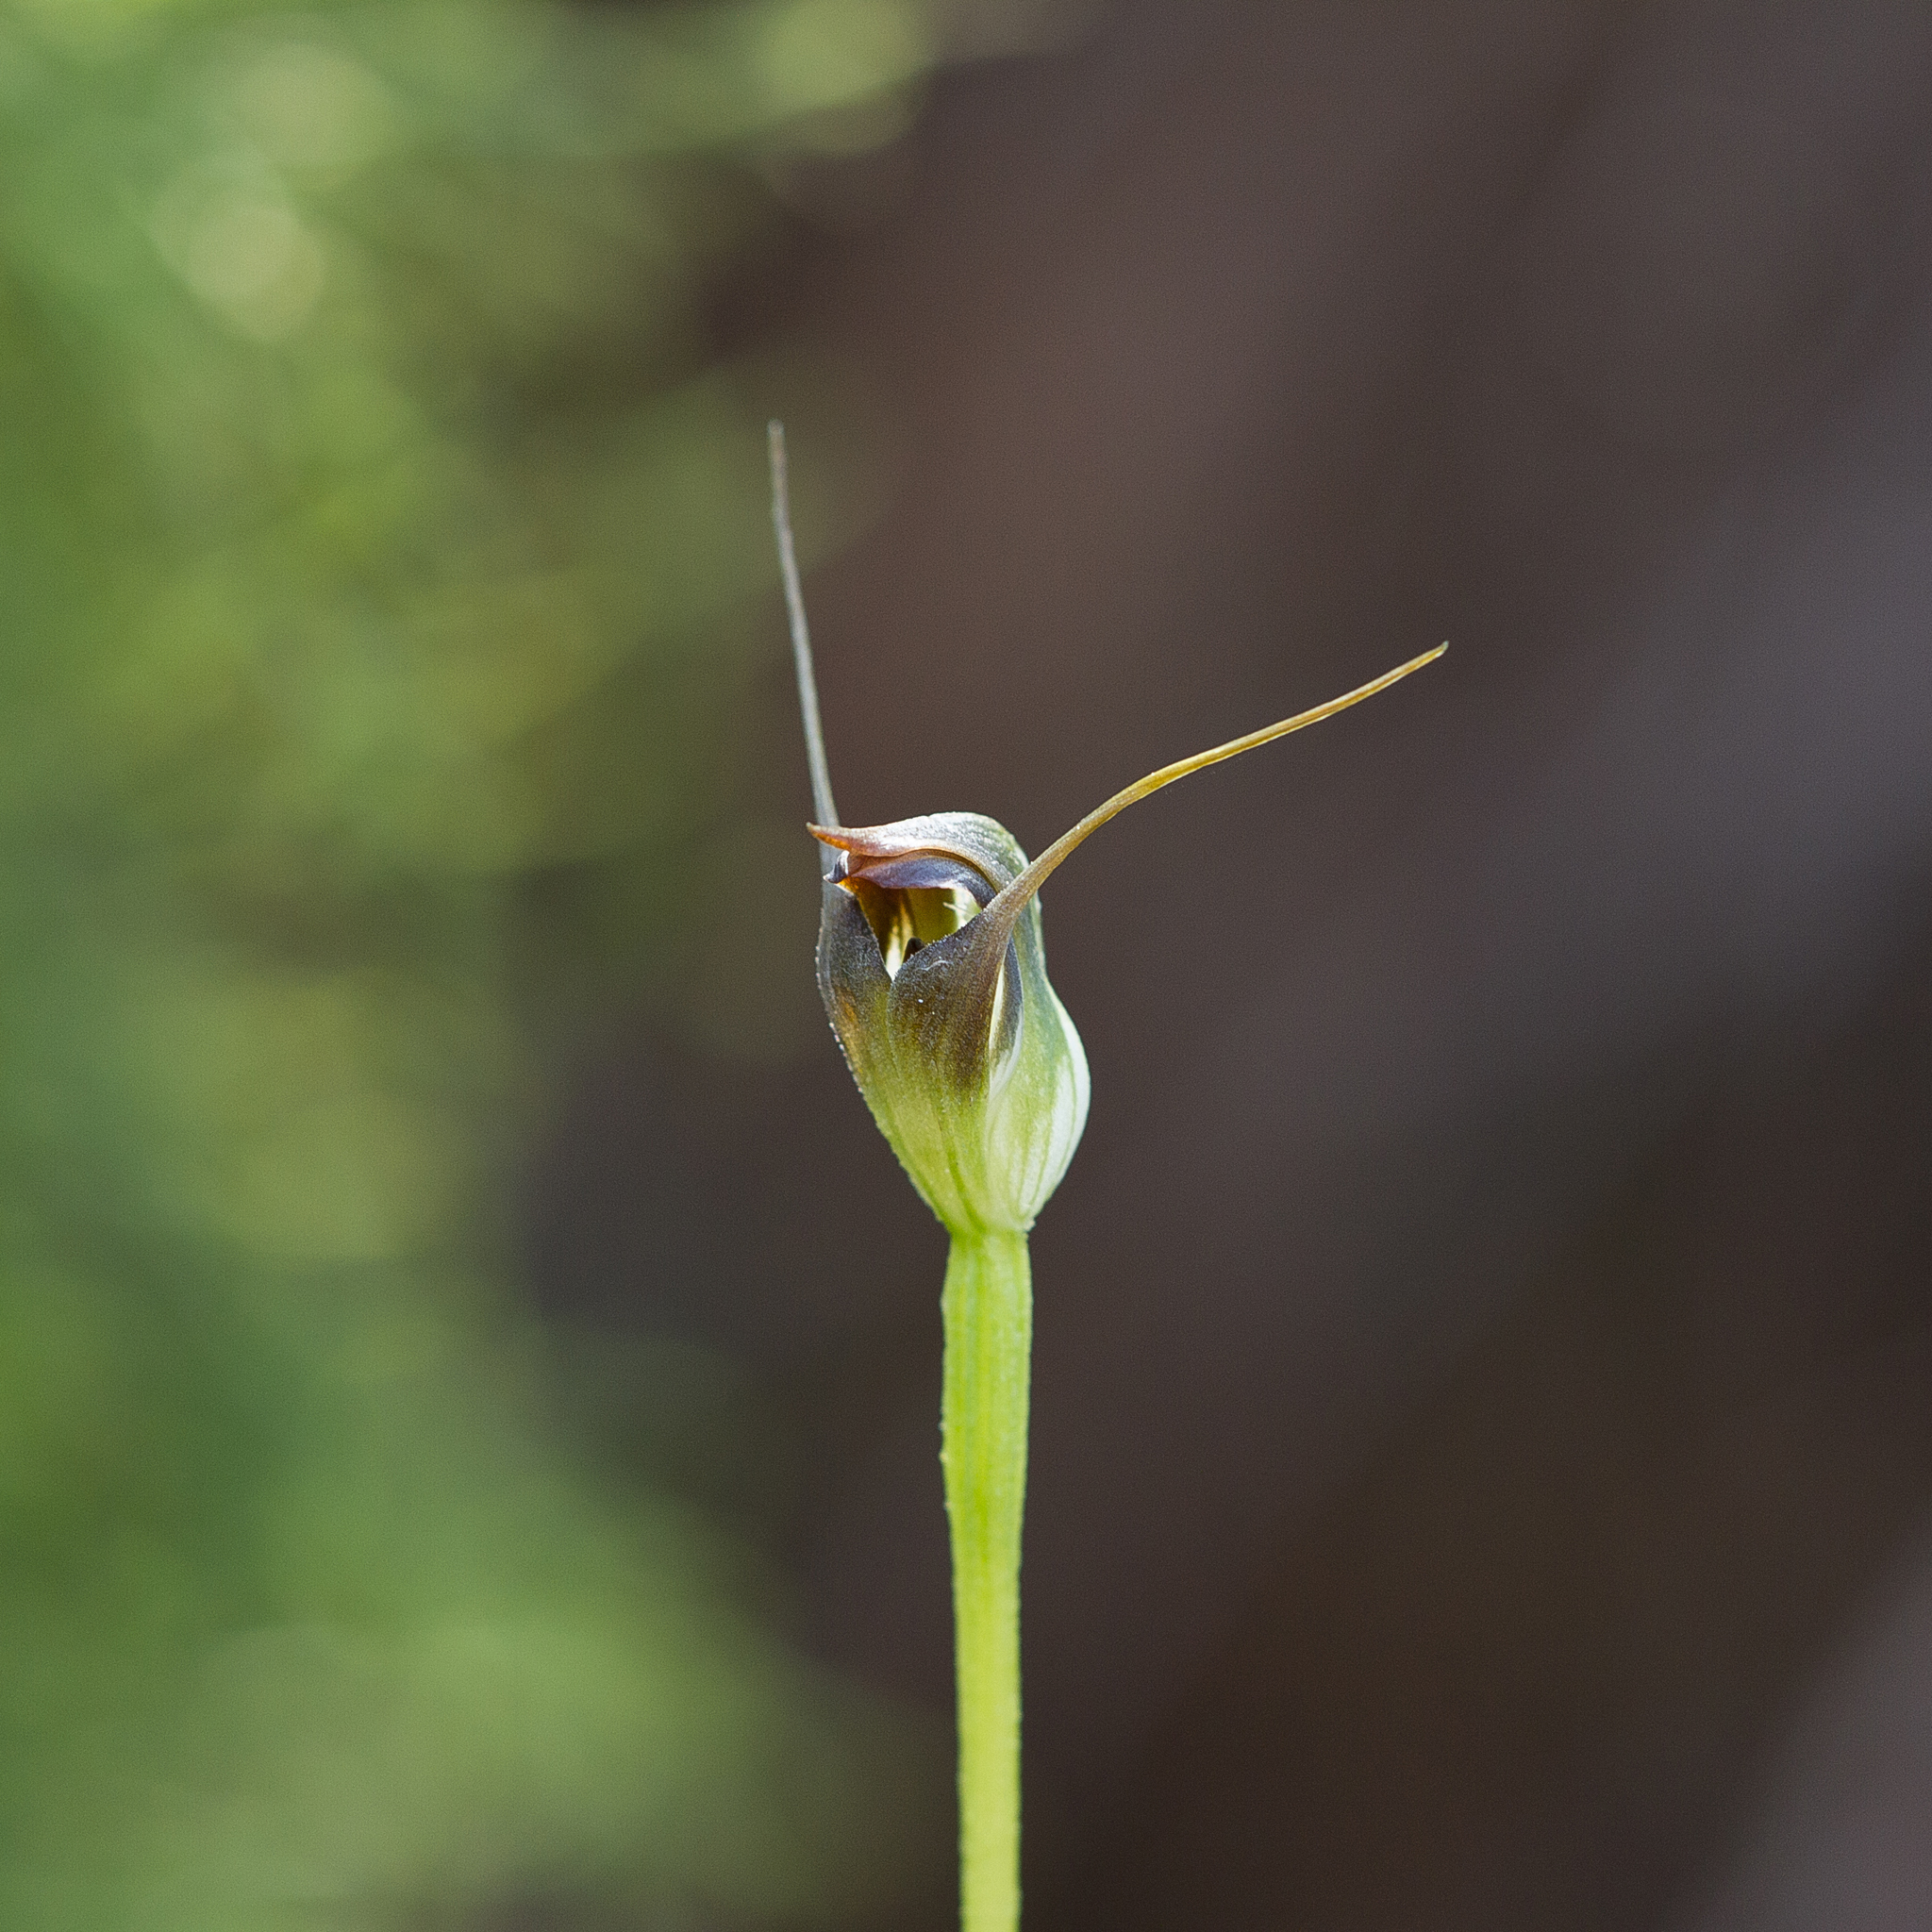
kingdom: Plantae
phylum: Tracheophyta
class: Liliopsida
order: Asparagales
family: Orchidaceae
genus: Pterostylis
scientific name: Pterostylis pedunculata
